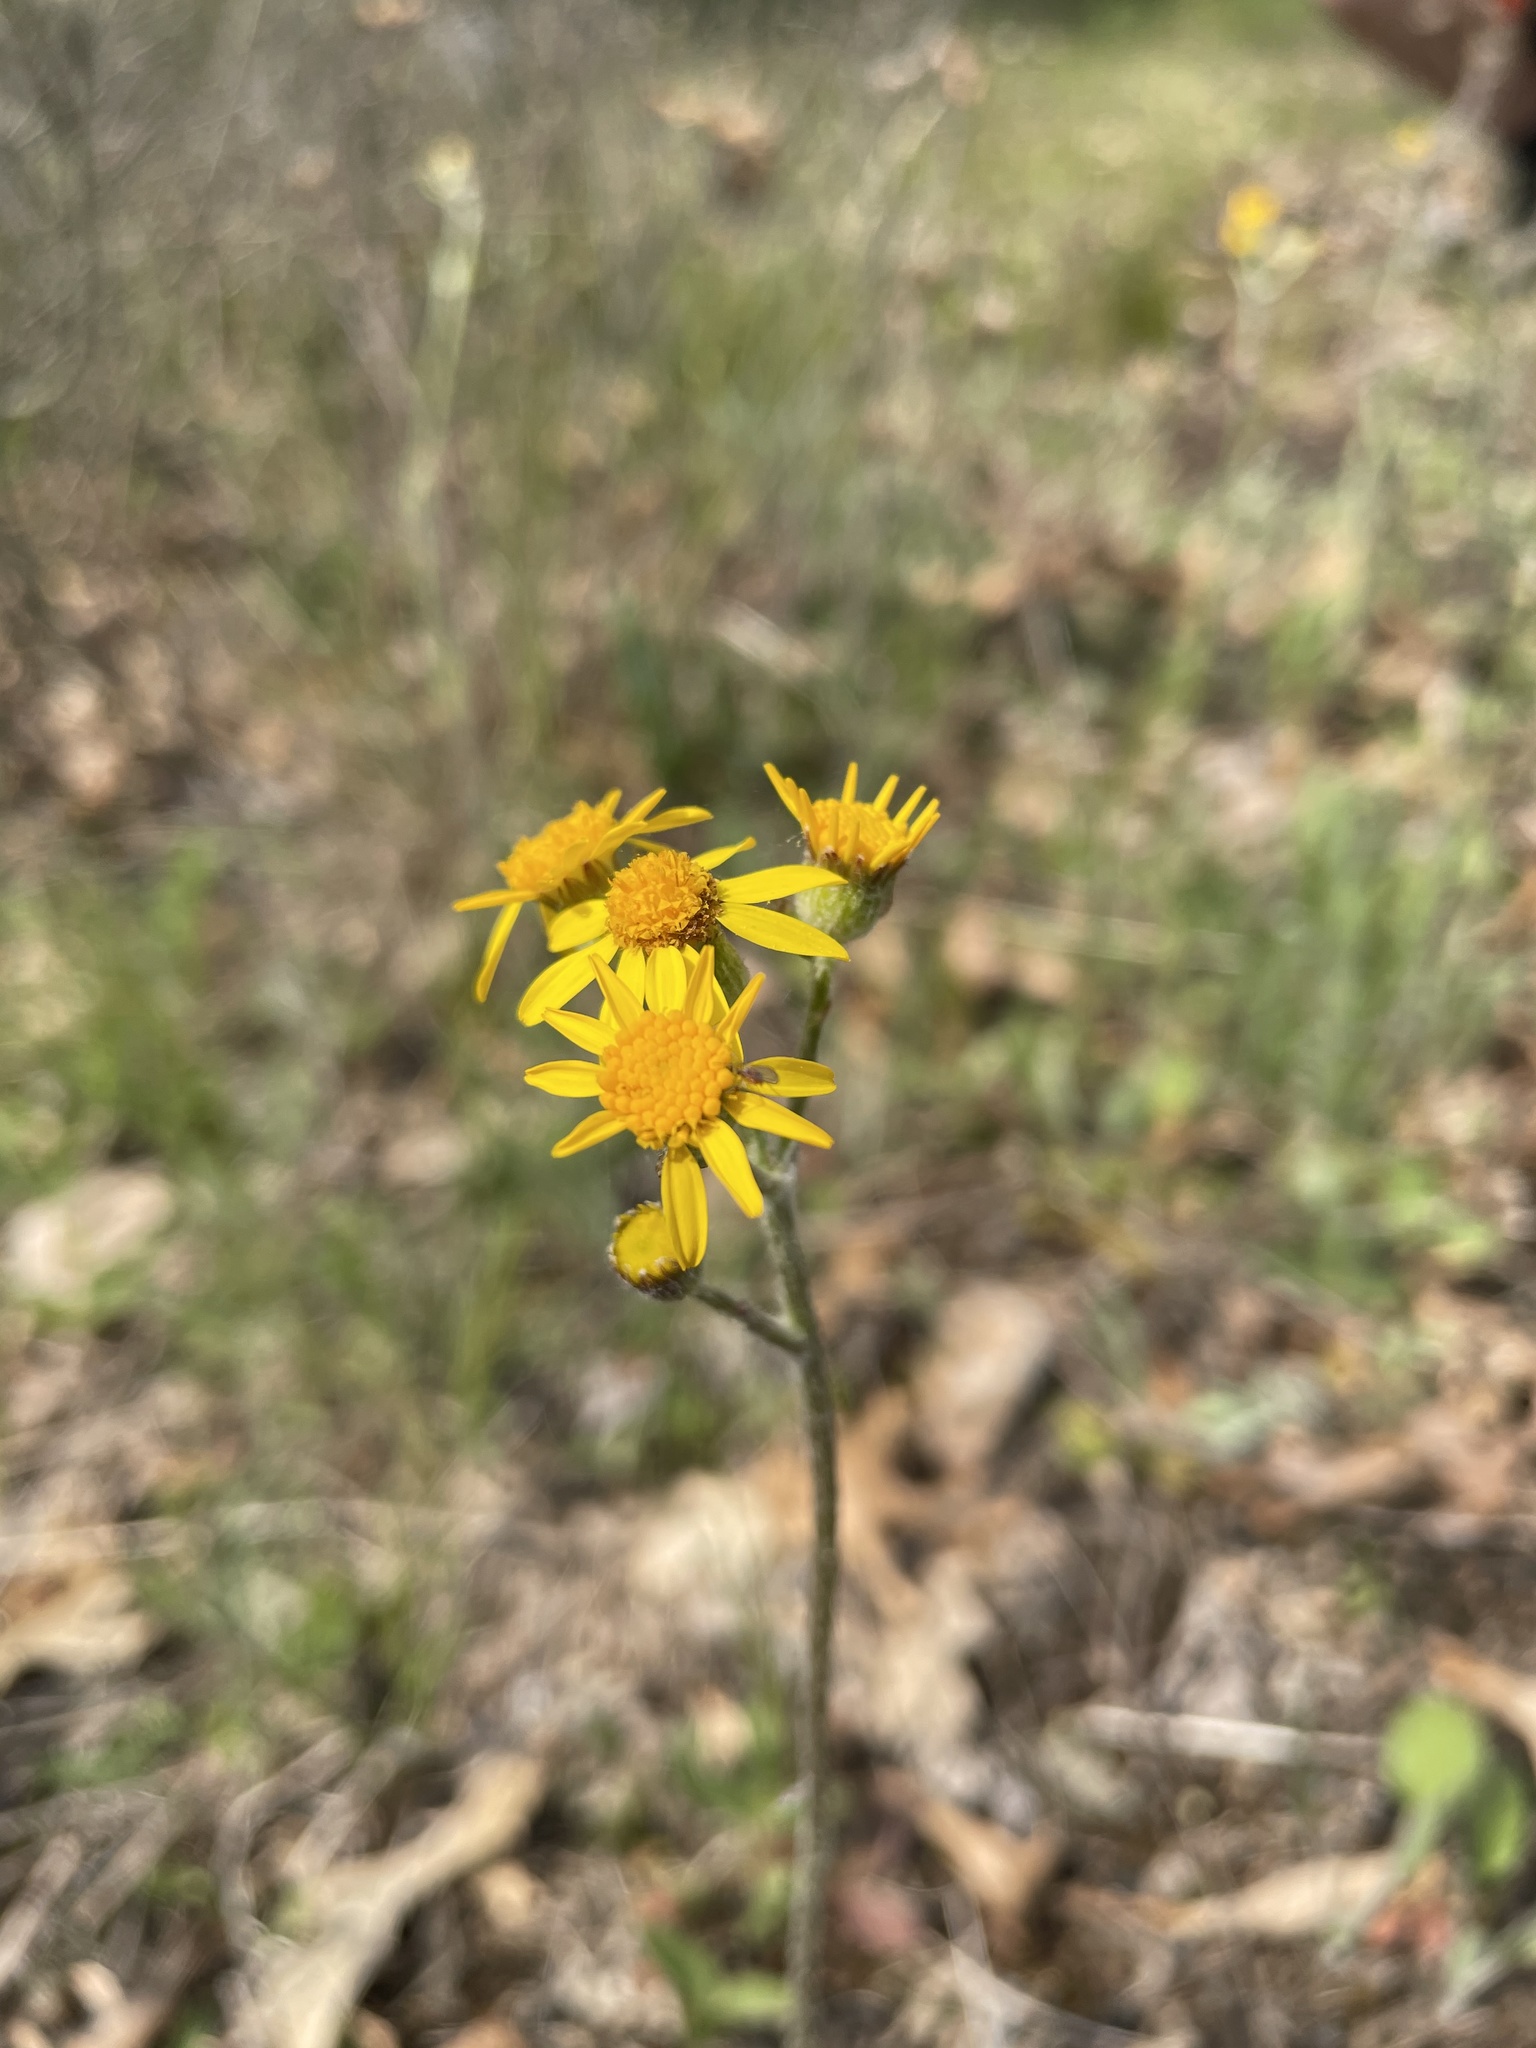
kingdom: Plantae
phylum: Tracheophyta
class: Magnoliopsida
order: Asterales
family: Asteraceae
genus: Packera
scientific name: Packera paupercula
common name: Balsam groundsel
